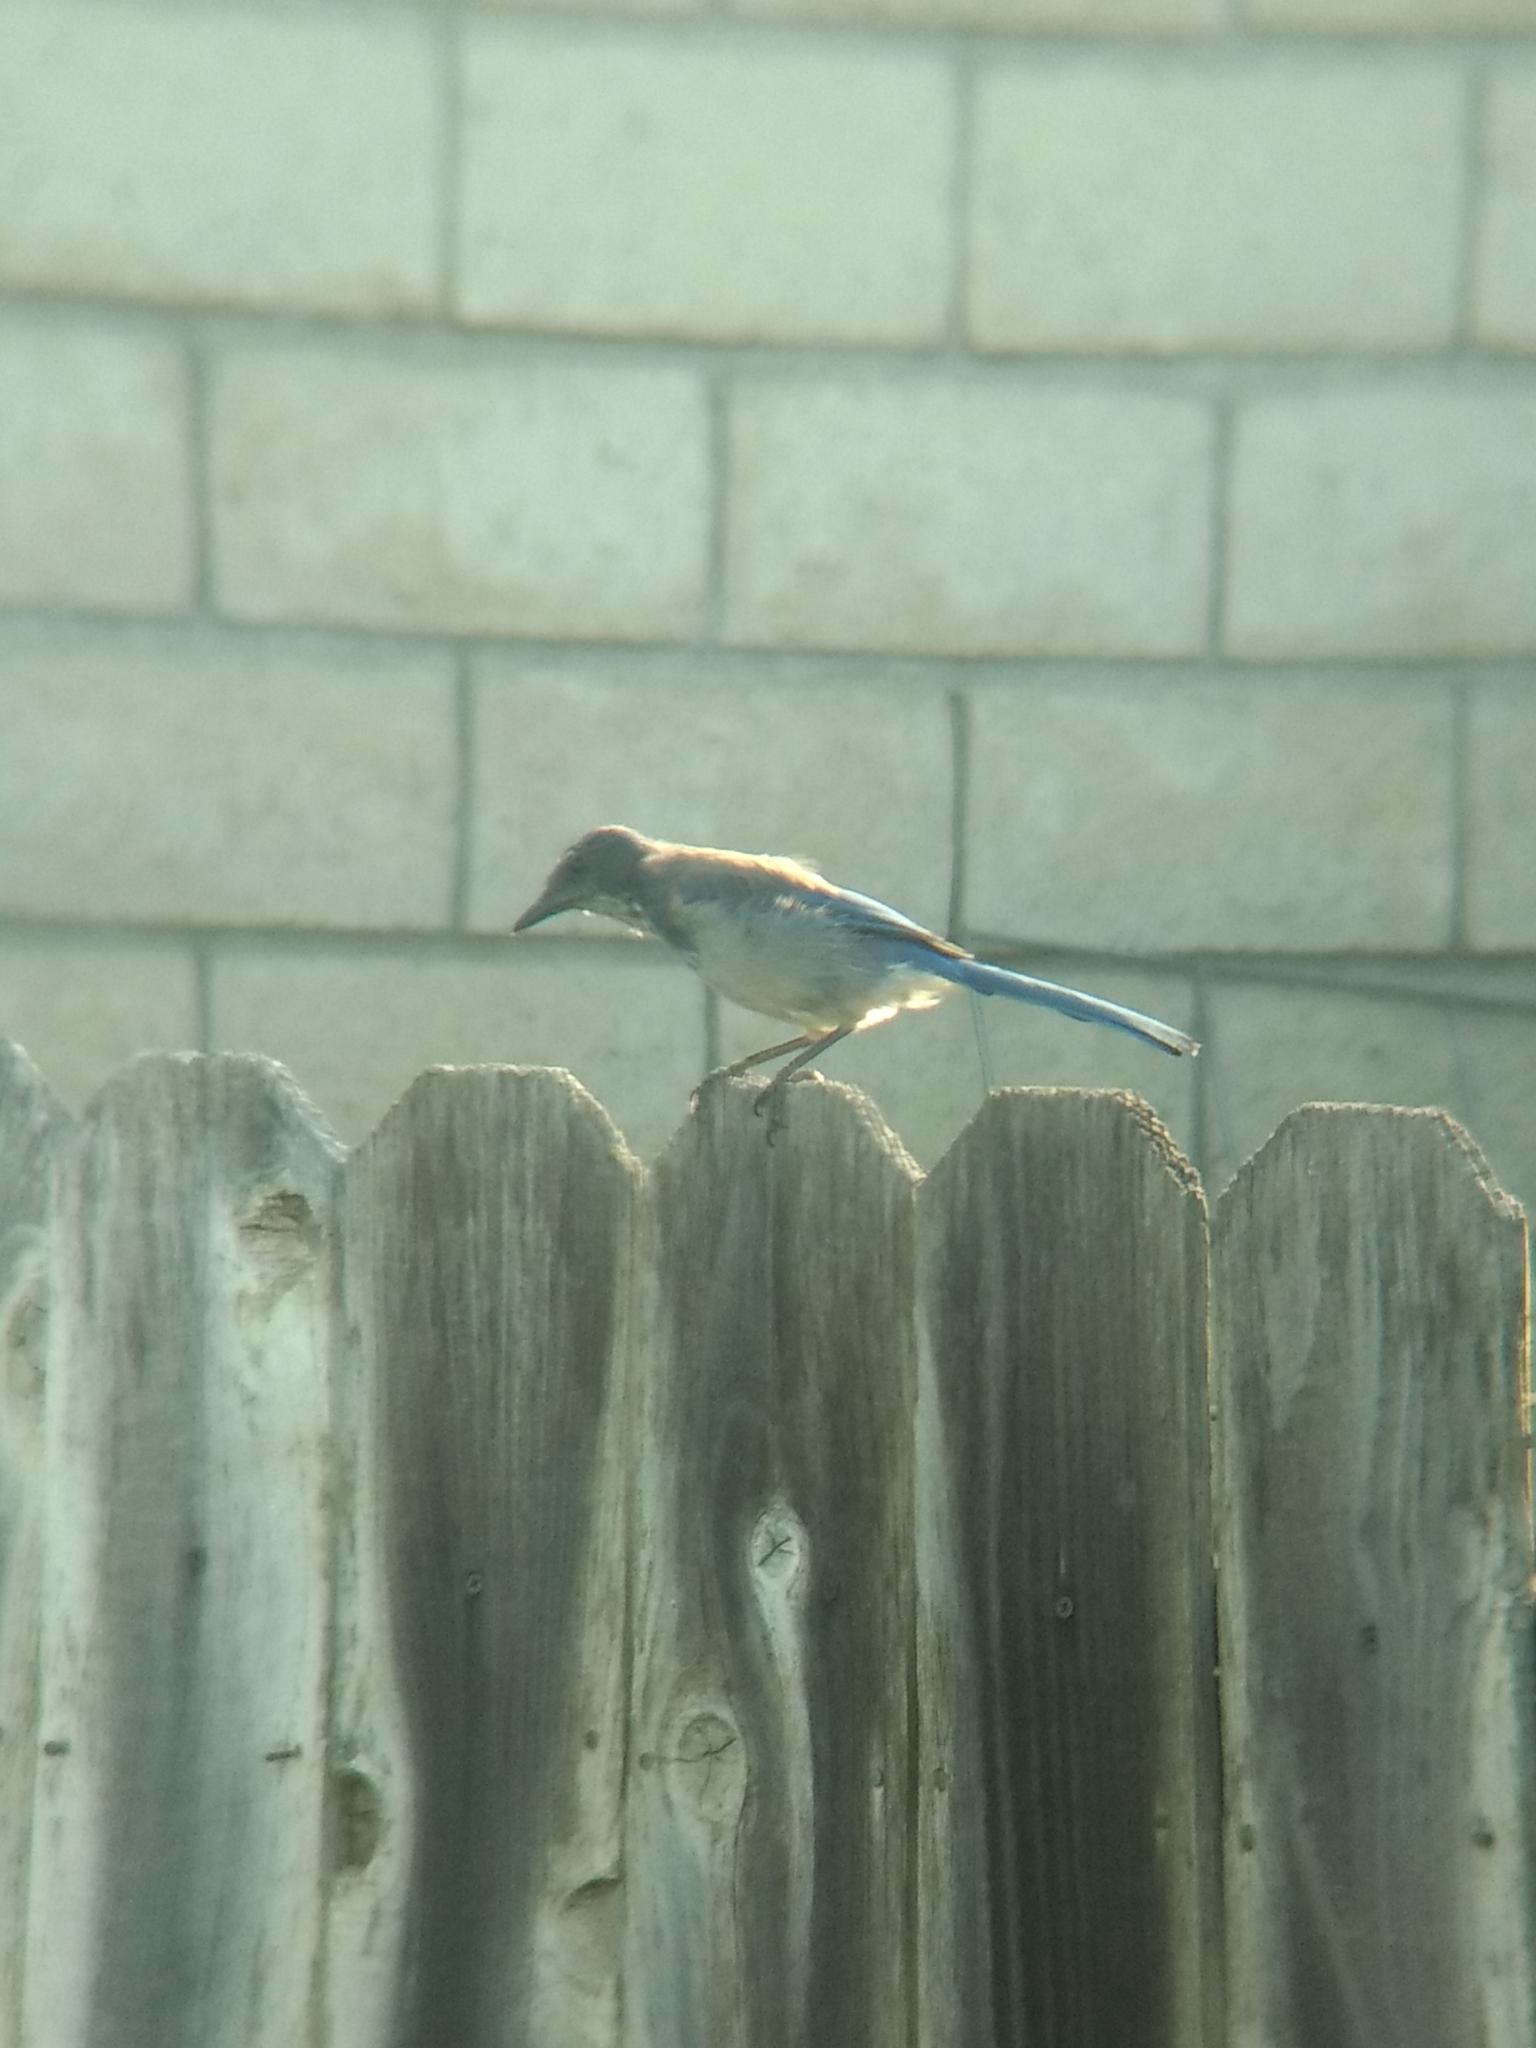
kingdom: Animalia
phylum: Chordata
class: Aves
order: Passeriformes
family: Corvidae
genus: Aphelocoma
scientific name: Aphelocoma californica
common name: California scrub-jay
